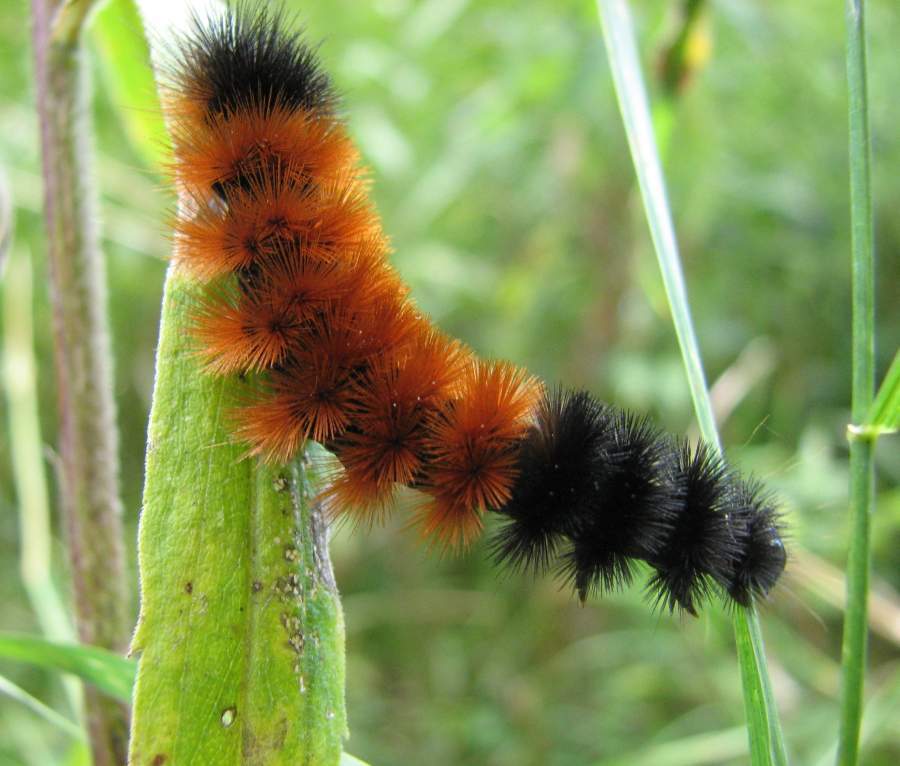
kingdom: Animalia
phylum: Arthropoda
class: Insecta
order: Lepidoptera
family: Erebidae
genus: Pyrrharctia
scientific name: Pyrrharctia isabella
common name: Isabella tiger moth
